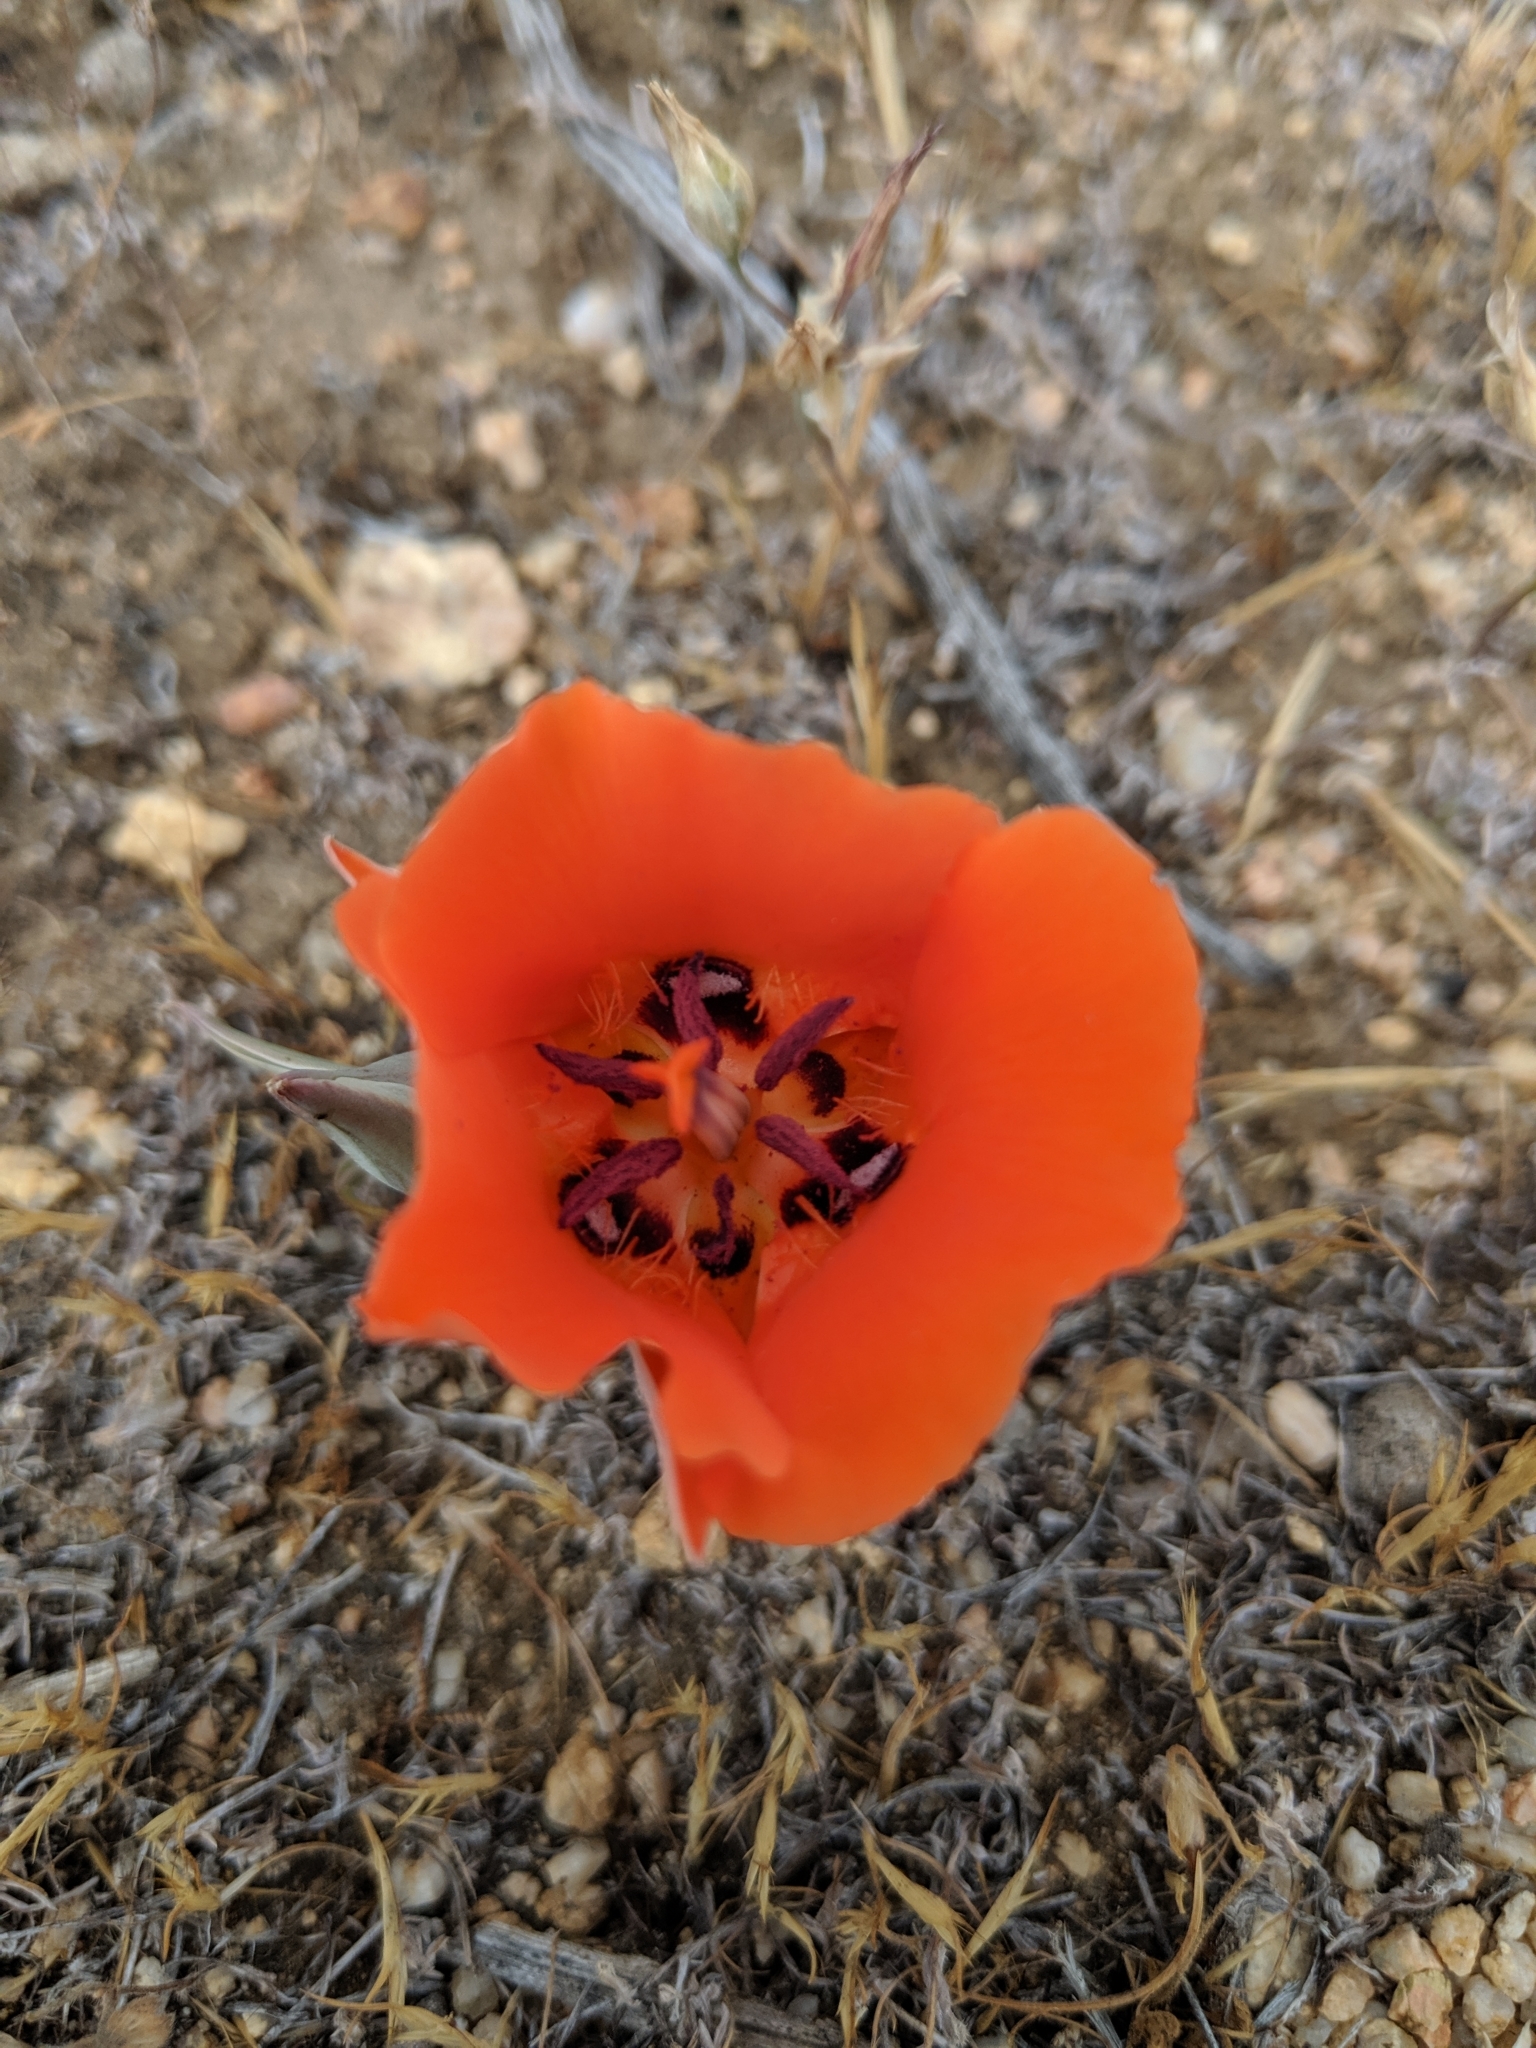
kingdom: Plantae
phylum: Tracheophyta
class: Liliopsida
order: Liliales
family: Liliaceae
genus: Calochortus
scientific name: Calochortus kennedyi
